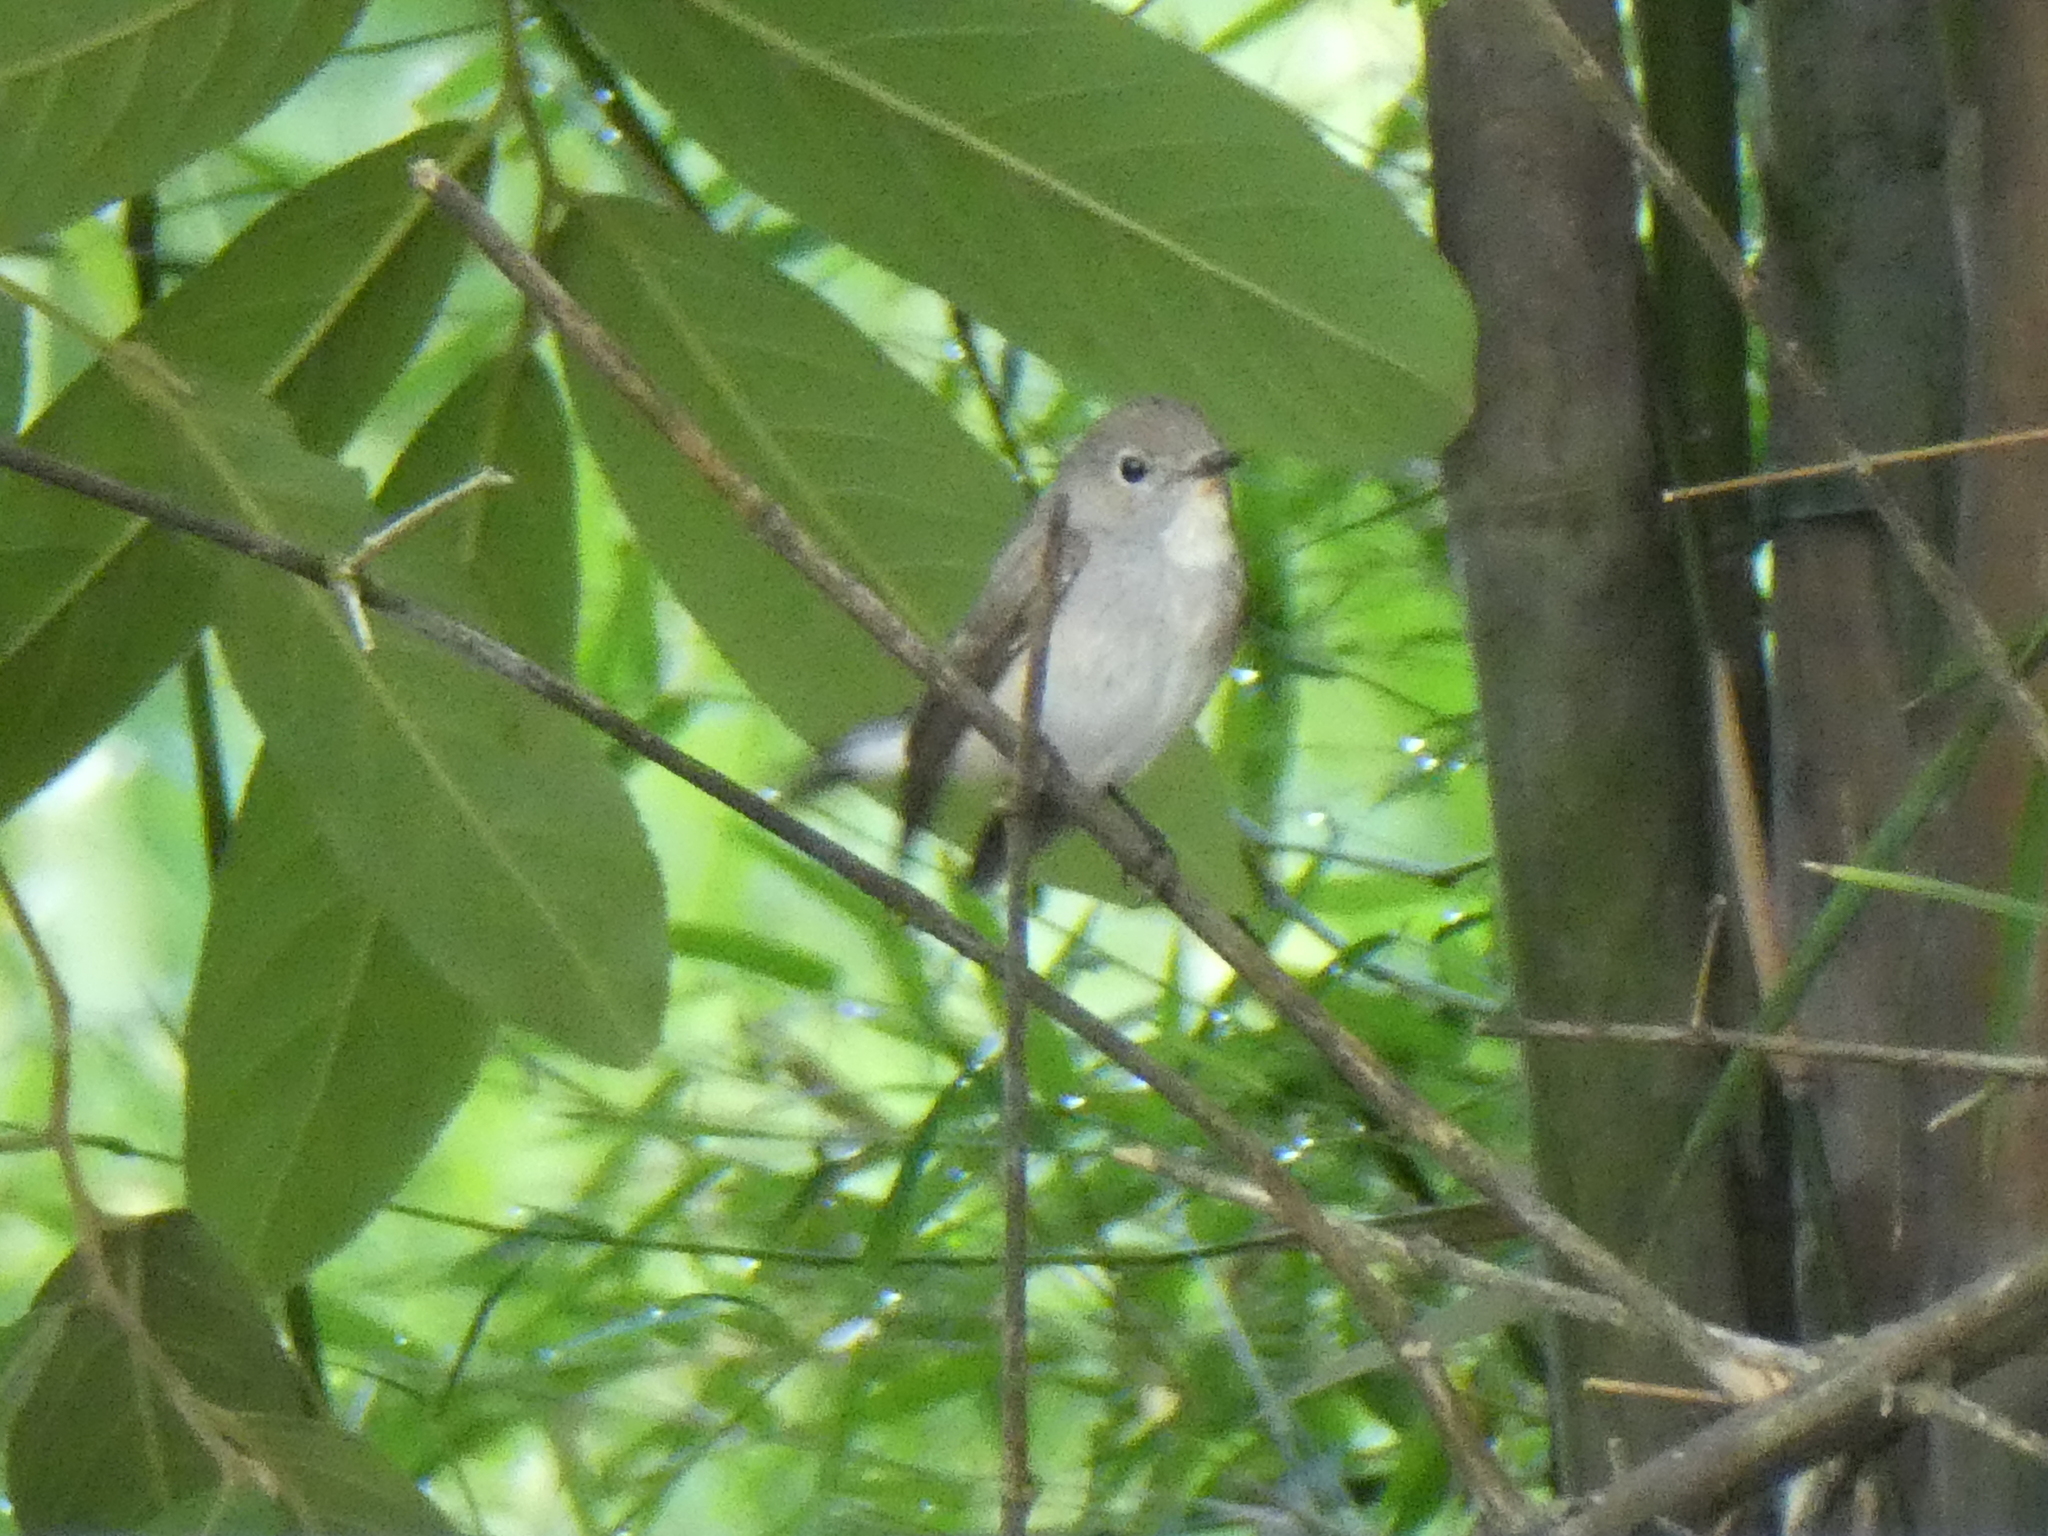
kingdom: Animalia
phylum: Chordata
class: Aves
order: Passeriformes
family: Muscicapidae
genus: Ficedula
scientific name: Ficedula albicilla
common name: Taiga flycatcher
